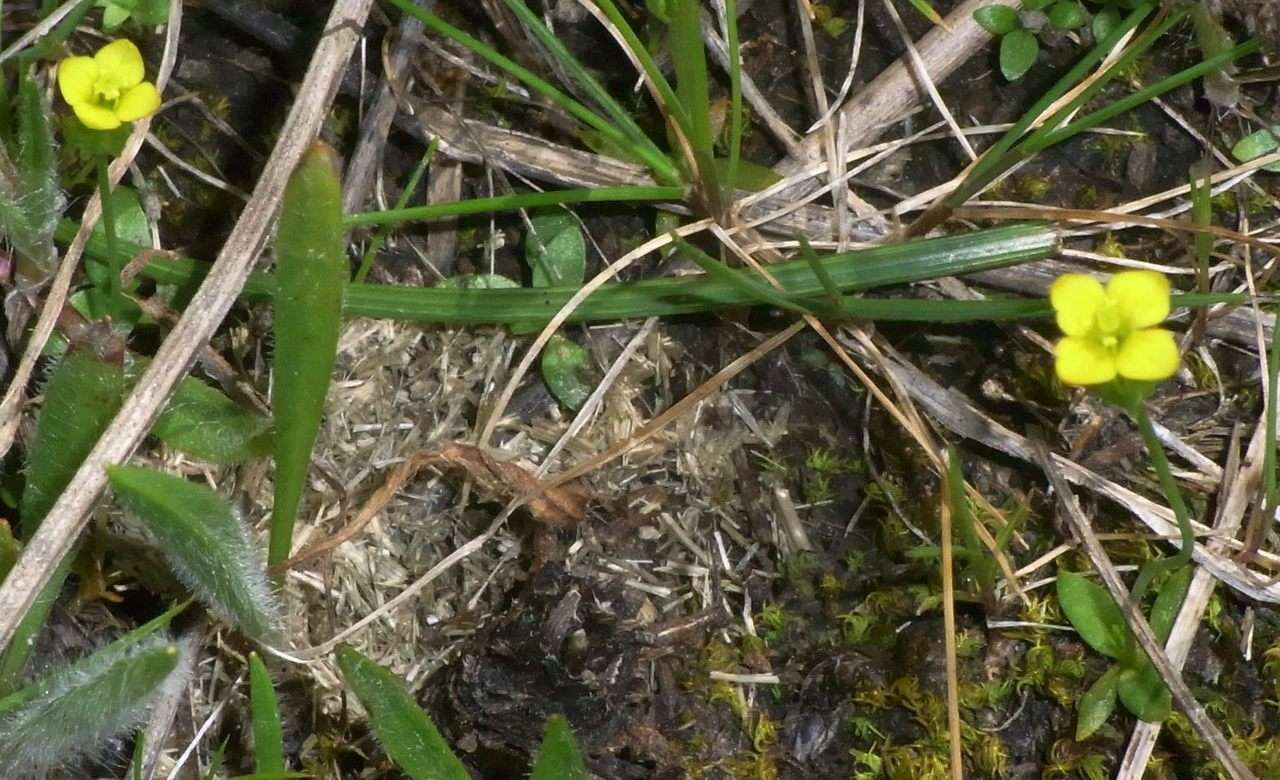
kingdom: Plantae
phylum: Tracheophyta
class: Magnoliopsida
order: Gentianales
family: Gentianaceae
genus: Microcala
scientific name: Microcala quadrangularis
